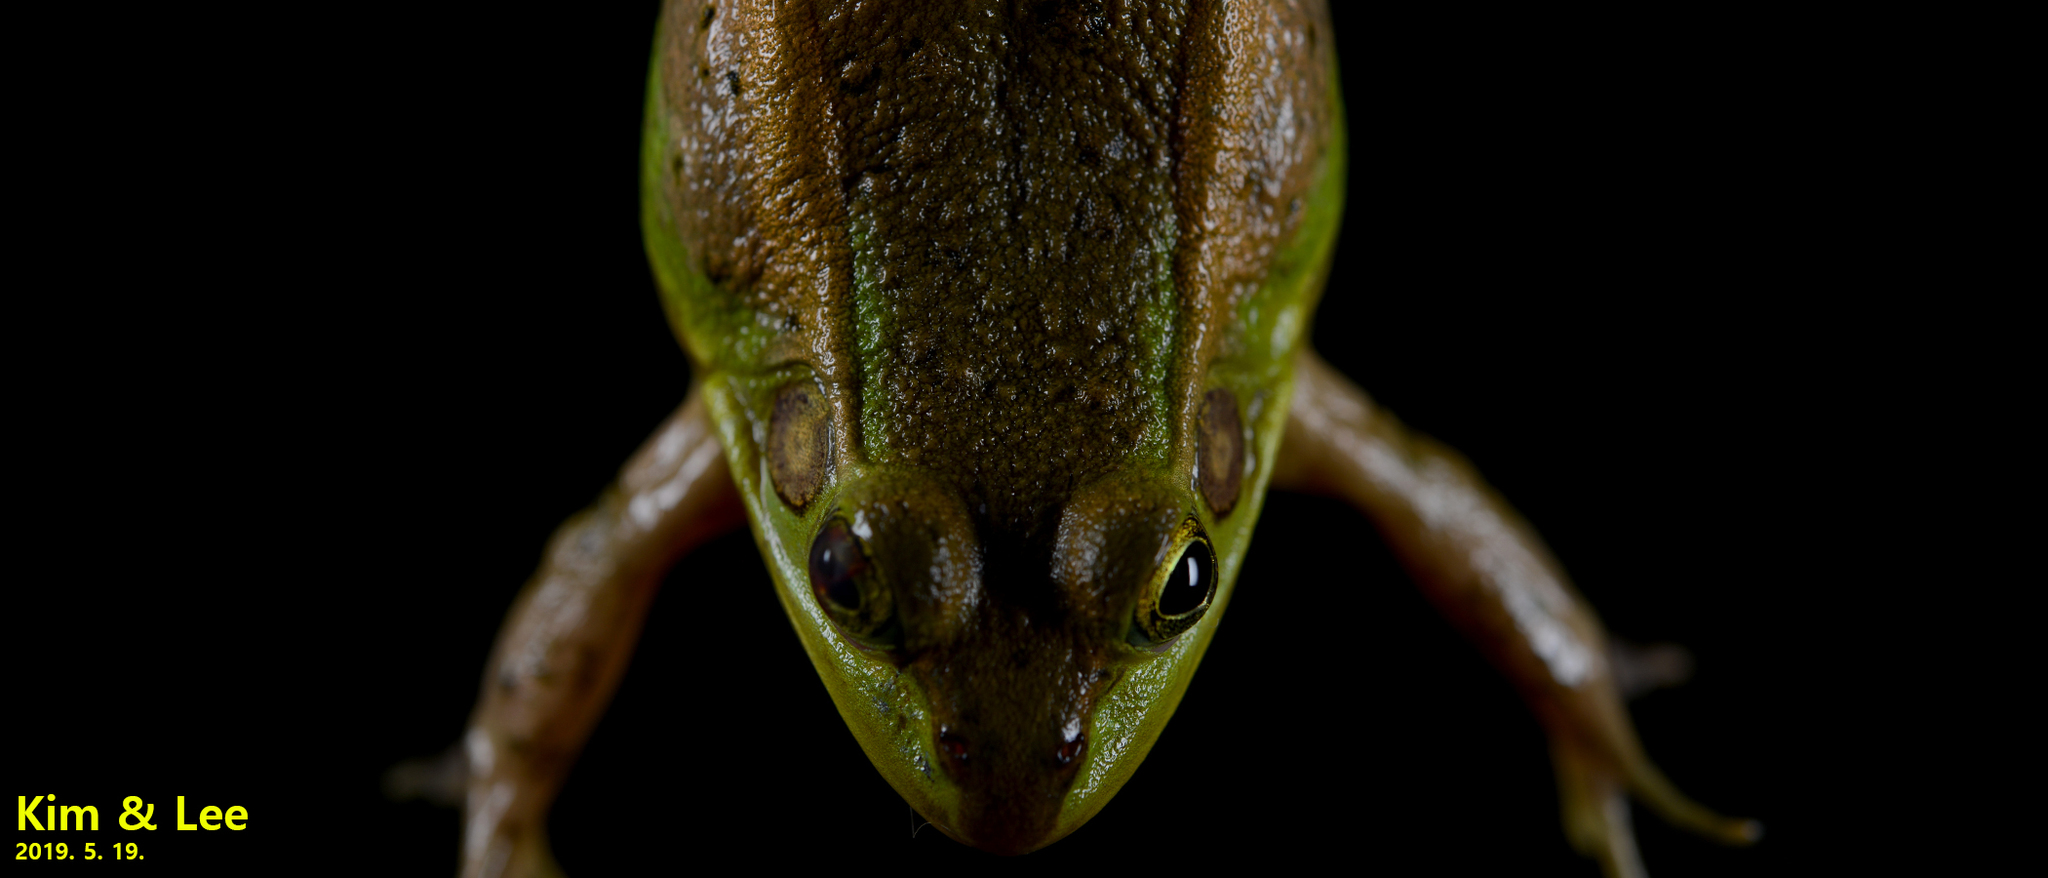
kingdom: Animalia
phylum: Chordata
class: Amphibia
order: Anura
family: Ranidae
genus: Pelophylax
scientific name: Pelophylax chosenicus
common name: Gold-spotted pond frog
